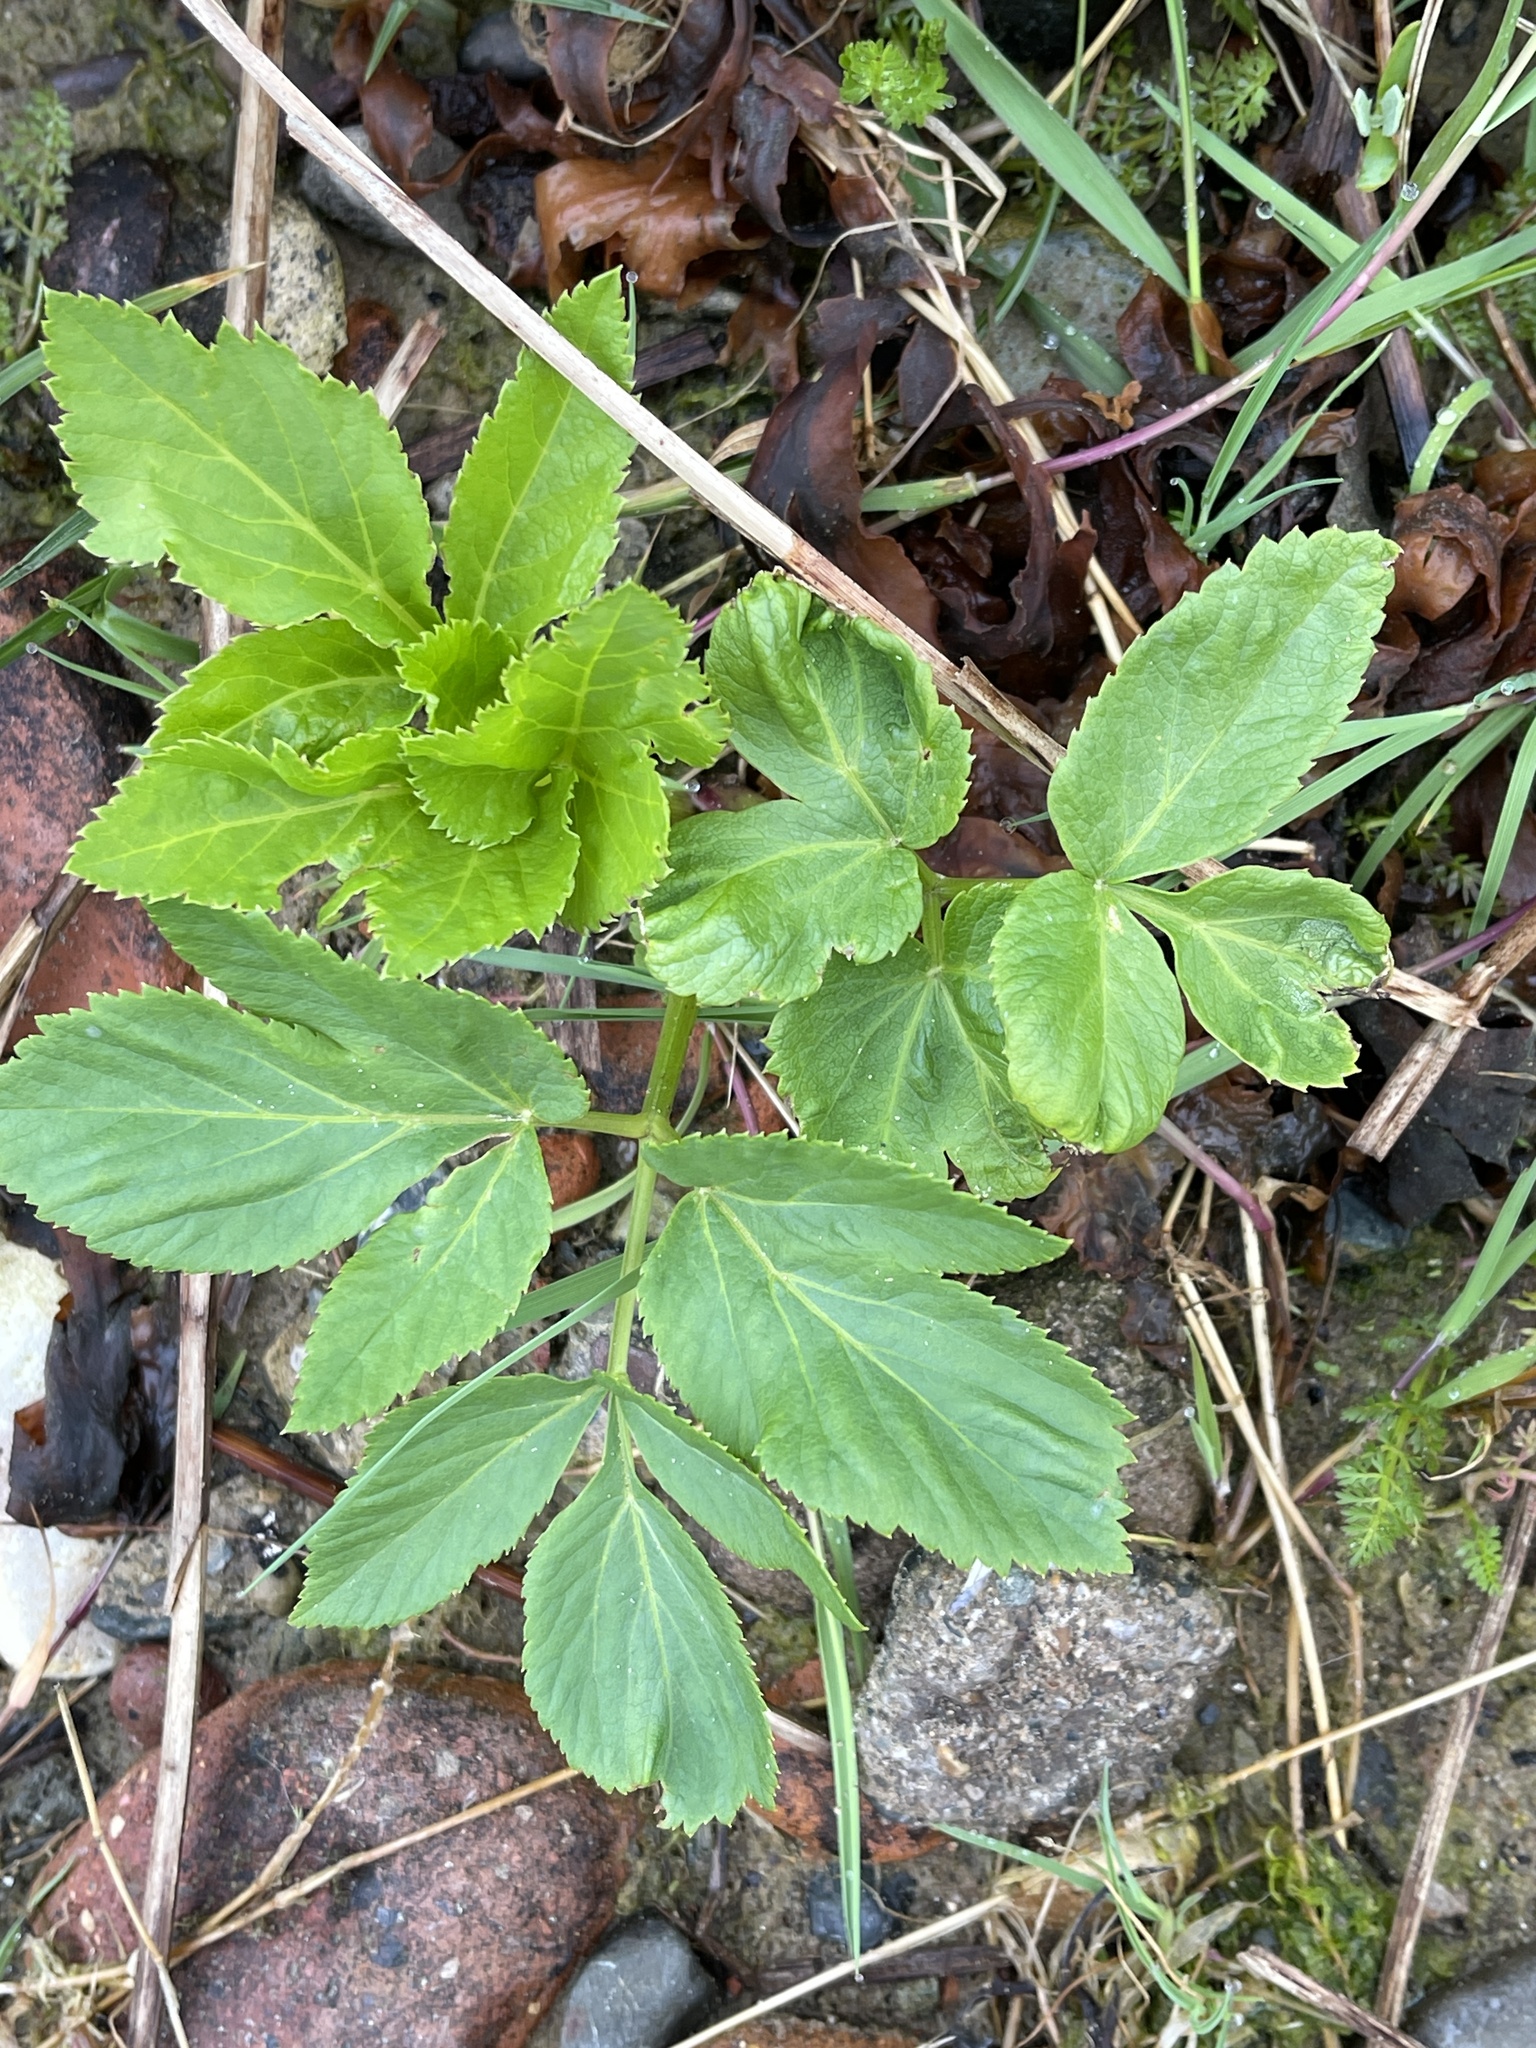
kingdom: Plantae
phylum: Tracheophyta
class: Magnoliopsida
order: Apiales
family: Apiaceae
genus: Angelica
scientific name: Angelica sylvestris
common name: Wild angelica
